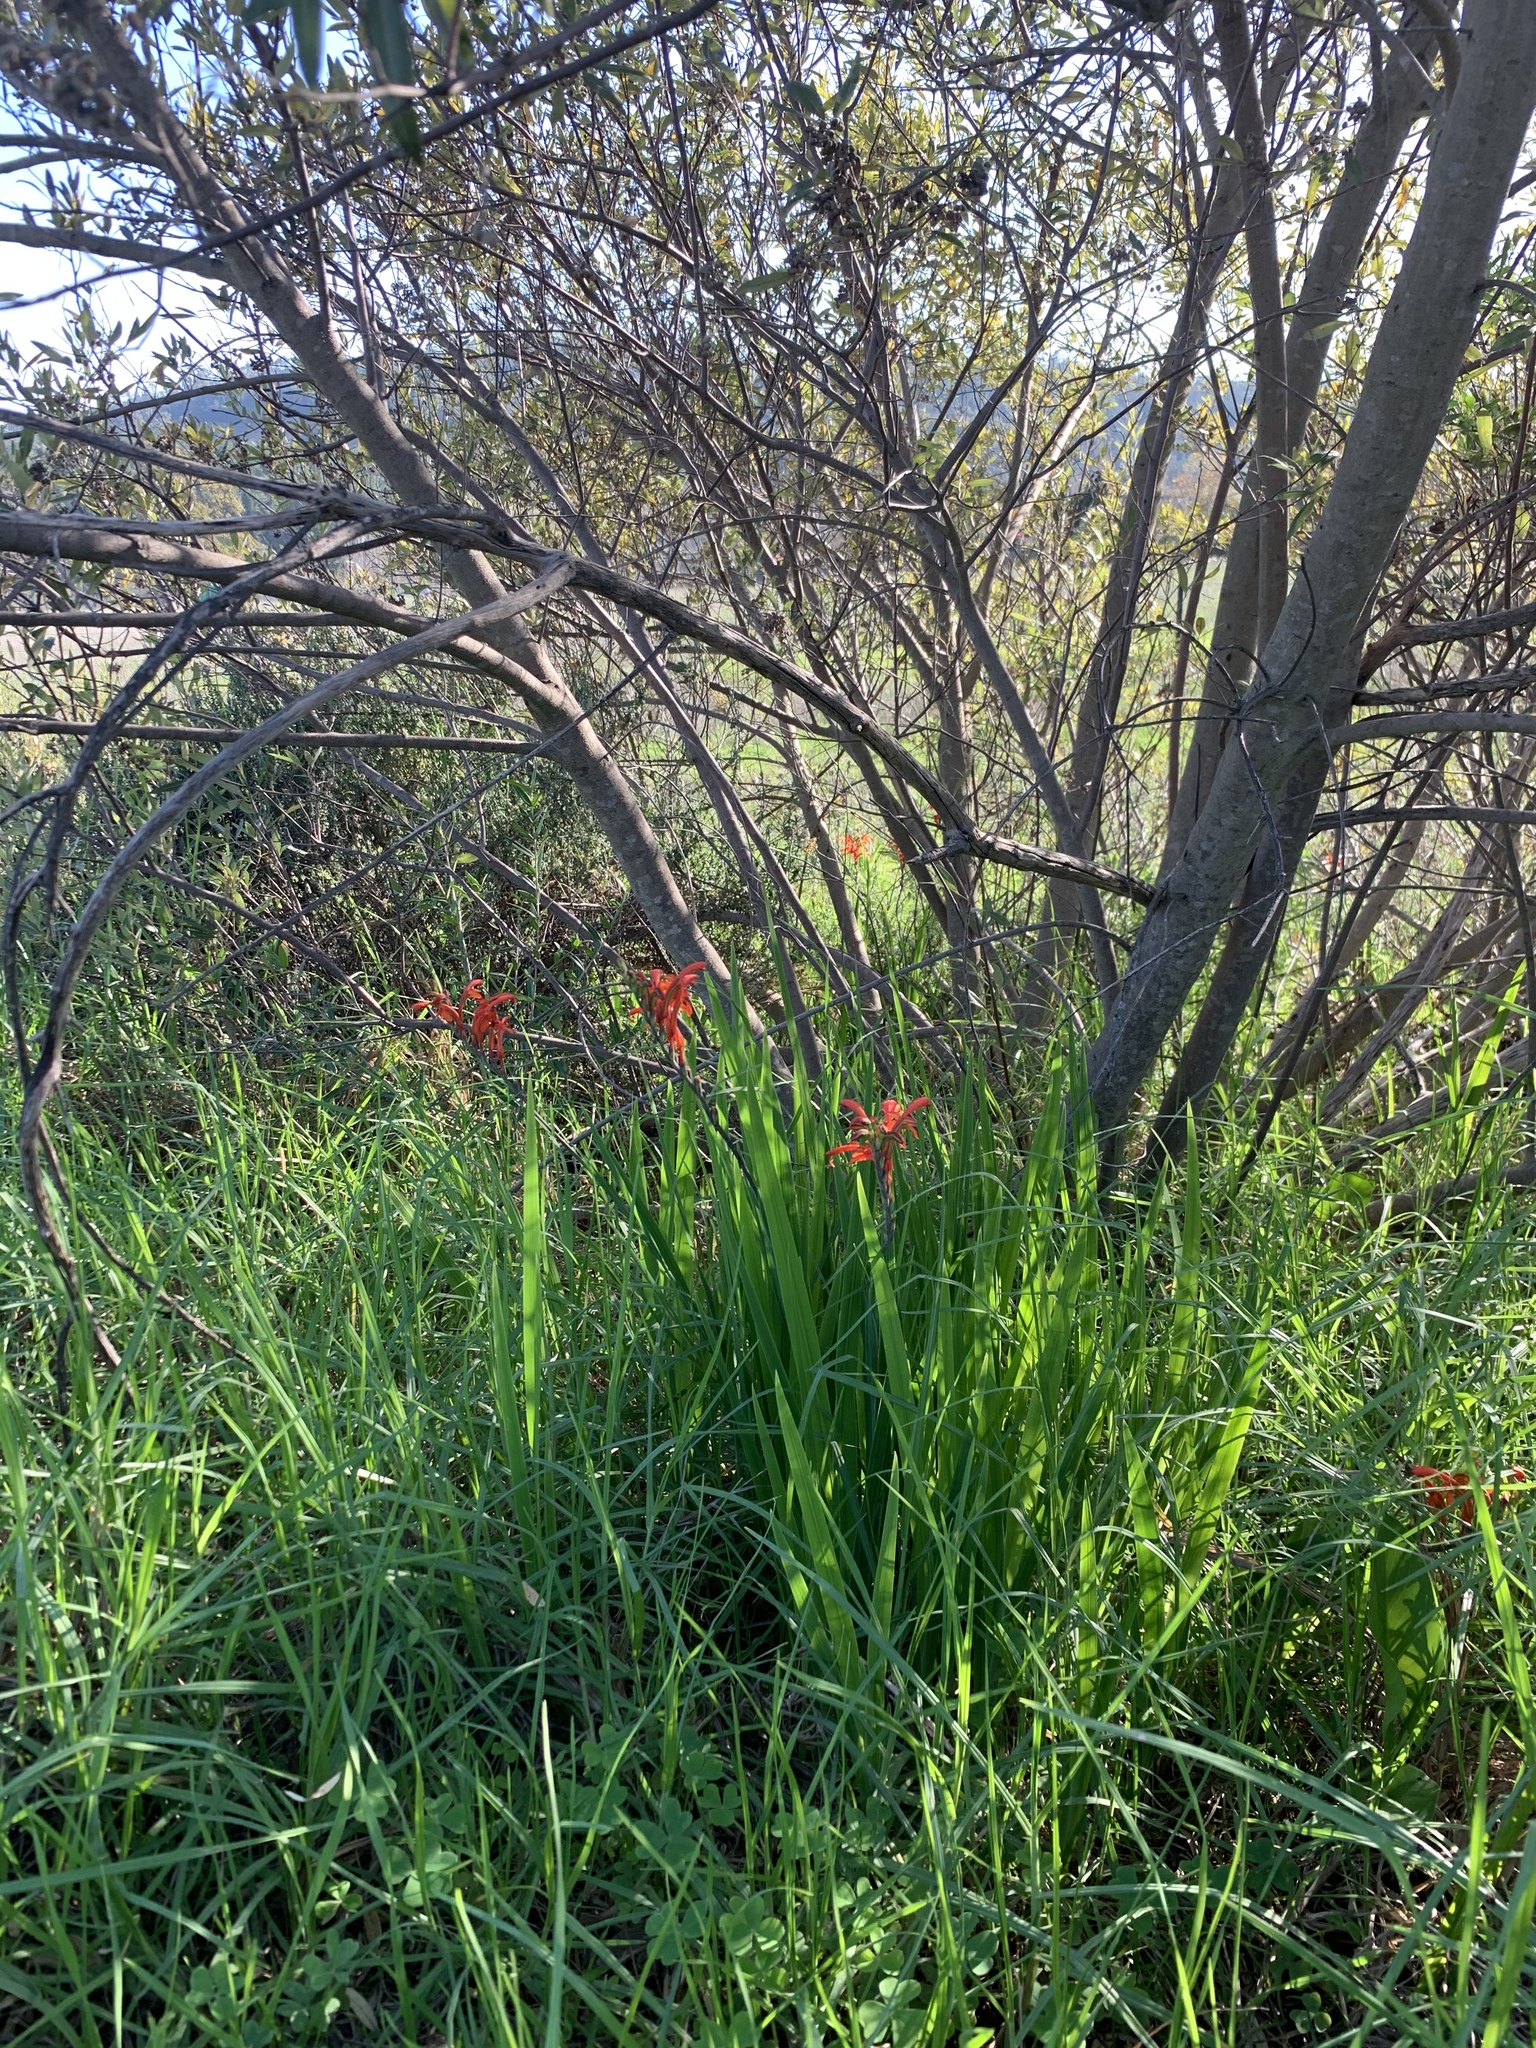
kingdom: Plantae
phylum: Tracheophyta
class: Liliopsida
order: Asparagales
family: Iridaceae
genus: Chasmanthe
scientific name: Chasmanthe aethiopica
